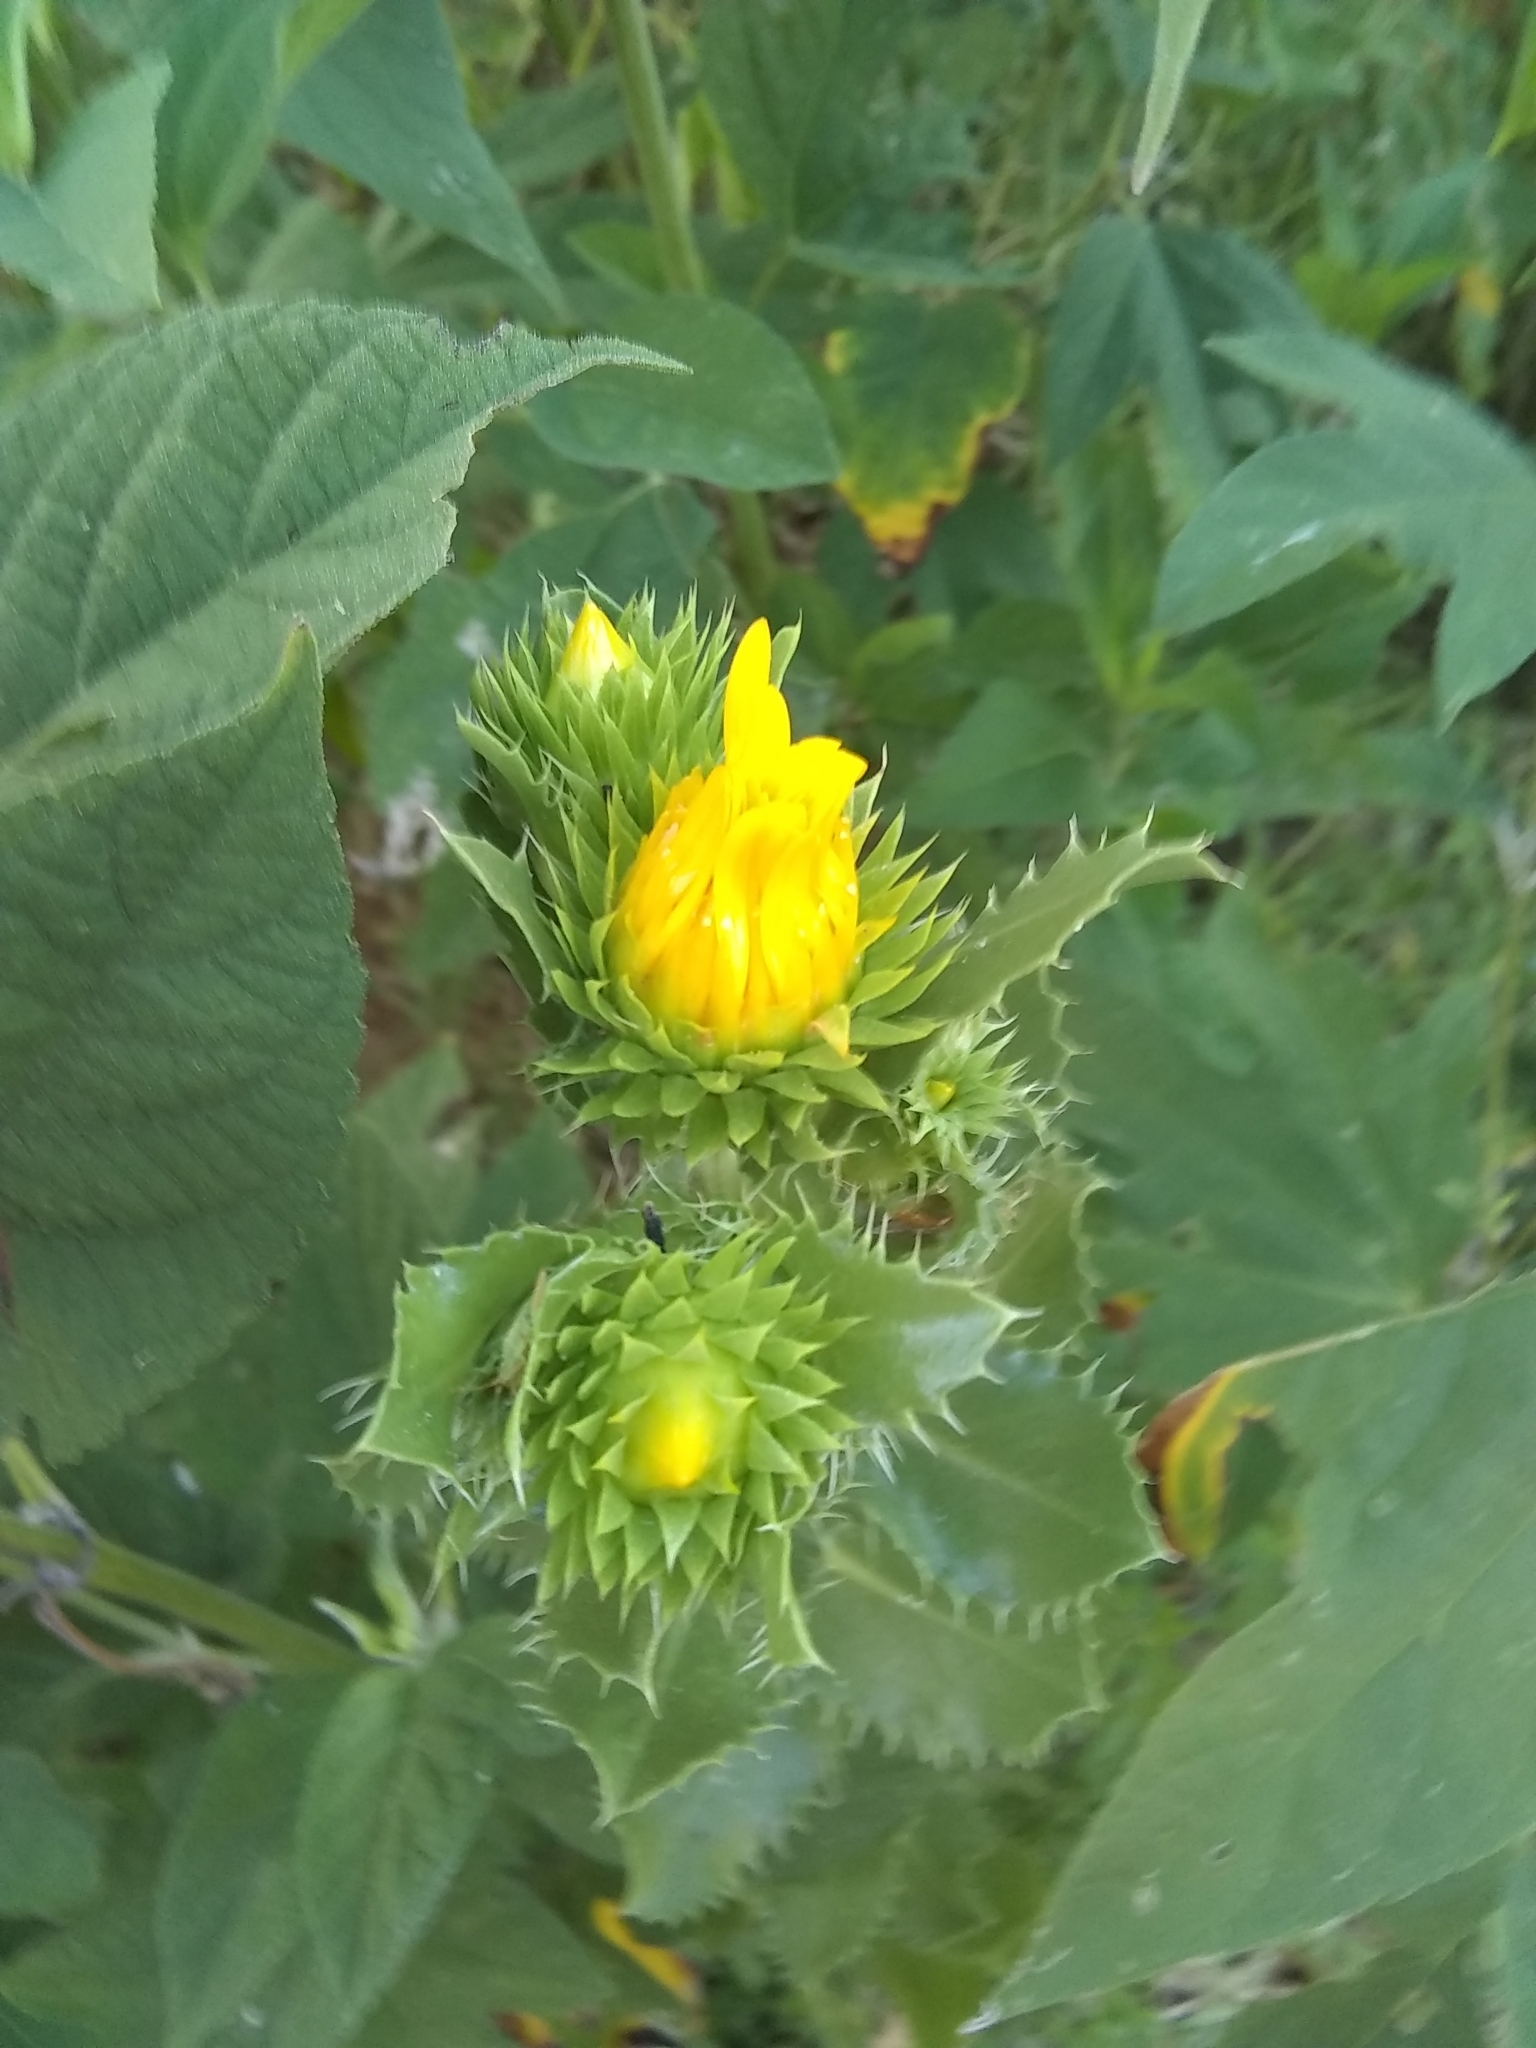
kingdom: Plantae
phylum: Tracheophyta
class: Magnoliopsida
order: Asterales
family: Asteraceae
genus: Grindelia
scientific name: Grindelia ciliata
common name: Goldenweed
